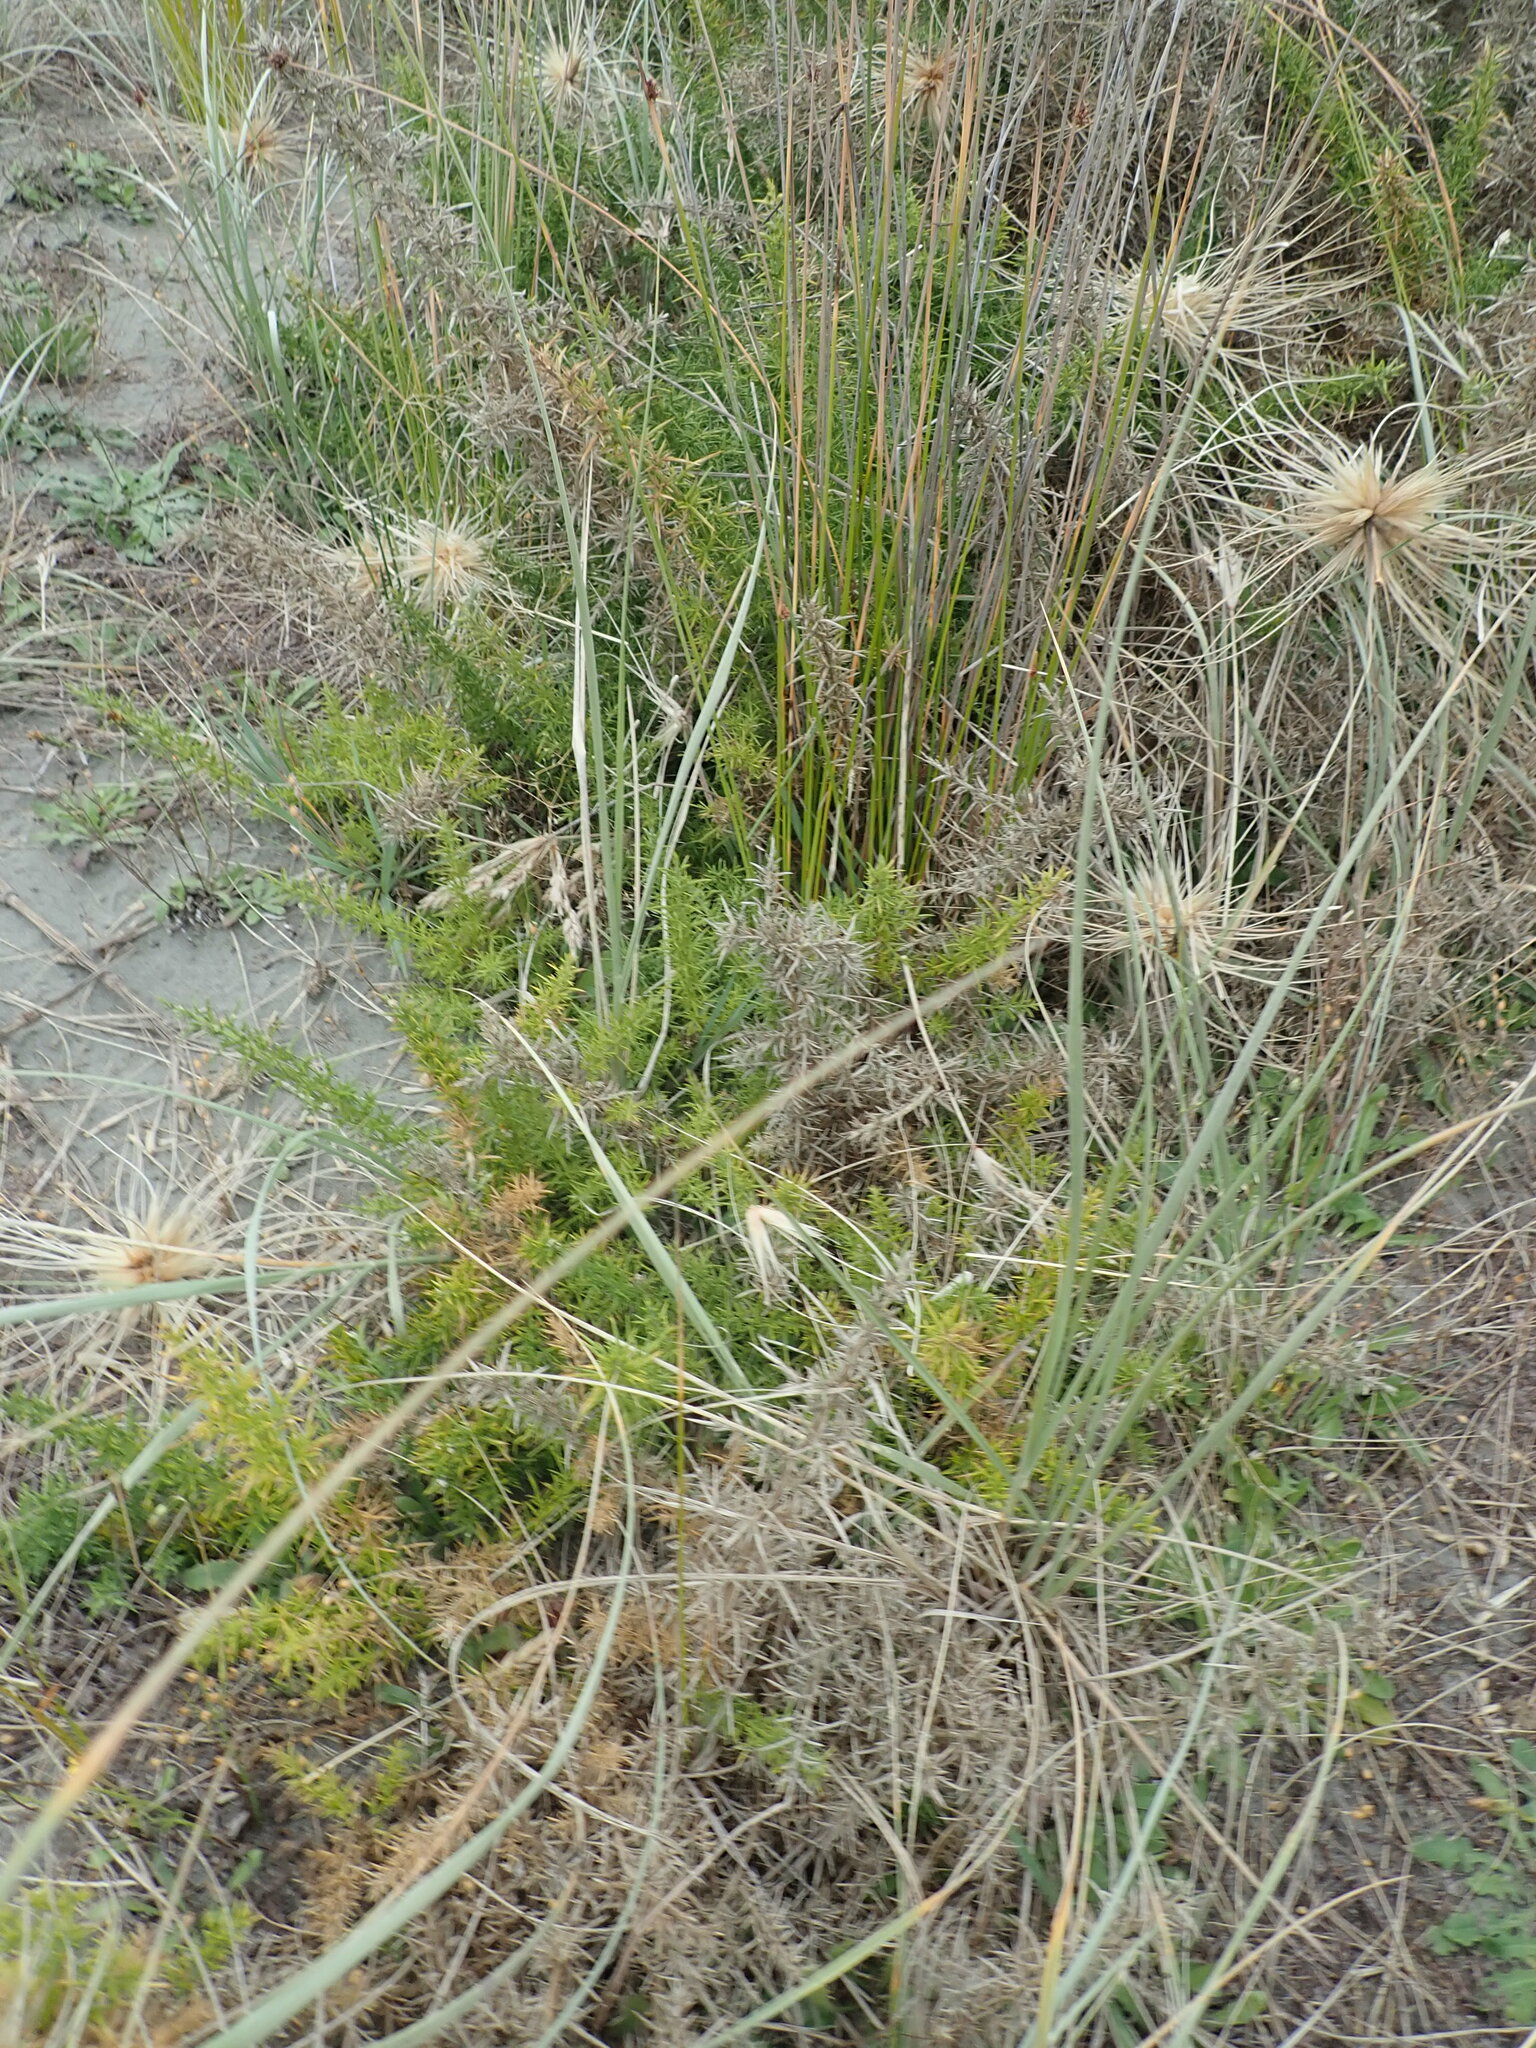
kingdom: Plantae
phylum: Tracheophyta
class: Magnoliopsida
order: Fabales
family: Fabaceae
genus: Ulex
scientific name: Ulex europaeus
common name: Common gorse
